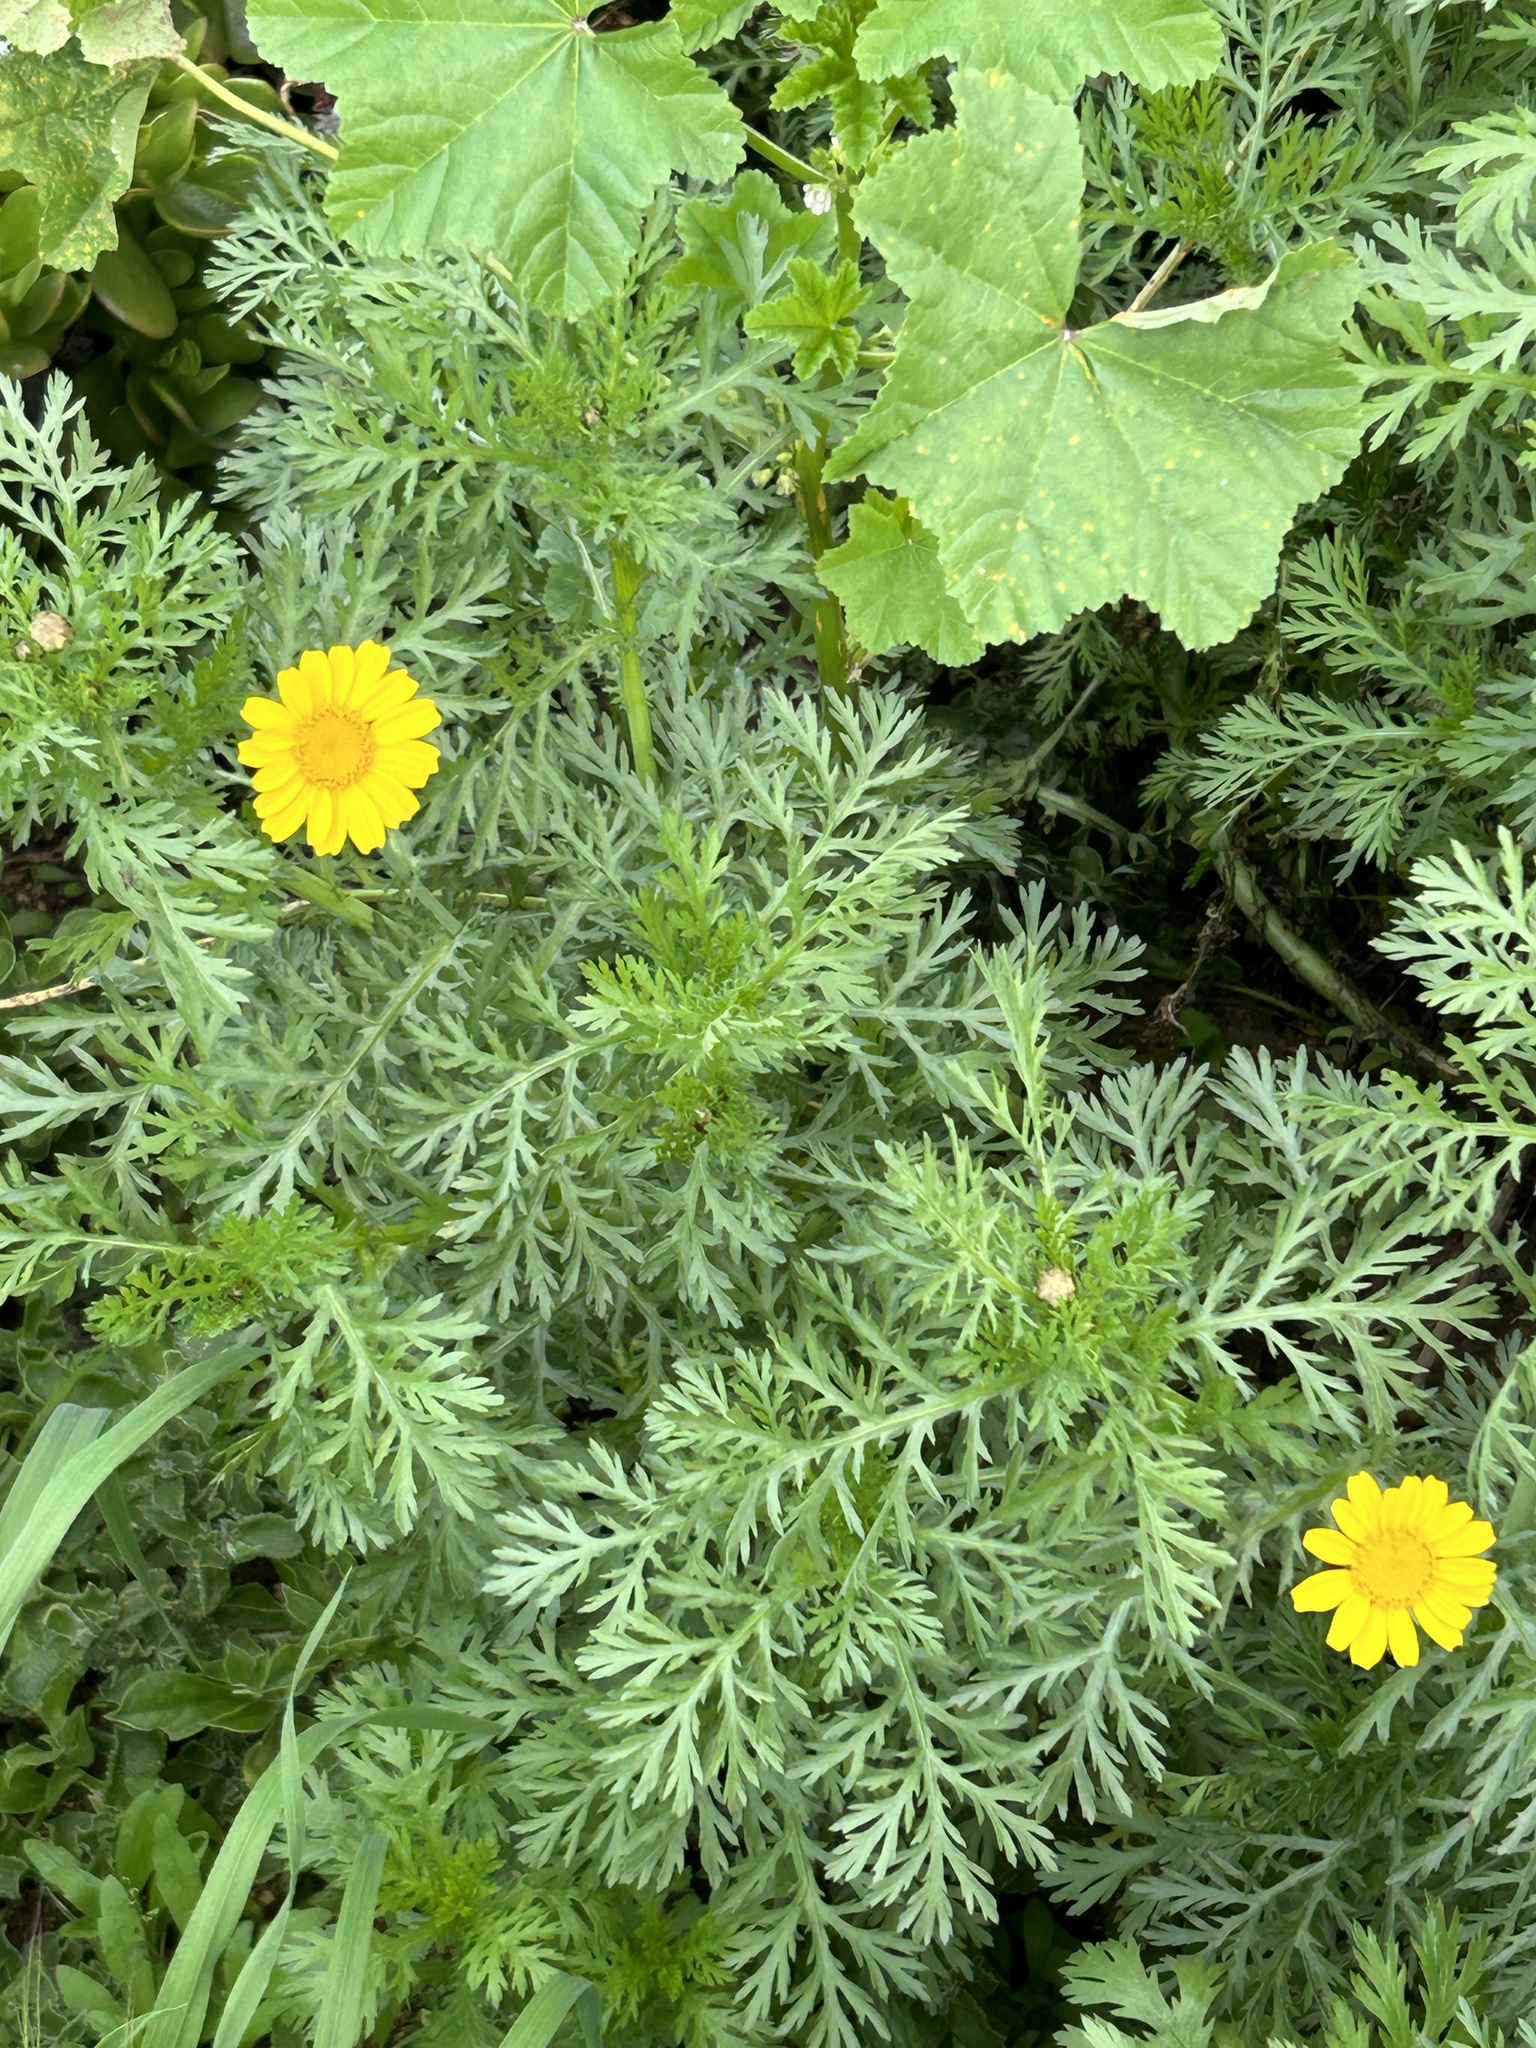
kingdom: Plantae
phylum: Tracheophyta
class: Magnoliopsida
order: Asterales
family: Asteraceae
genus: Glebionis
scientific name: Glebionis coronaria
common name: Crowndaisy
